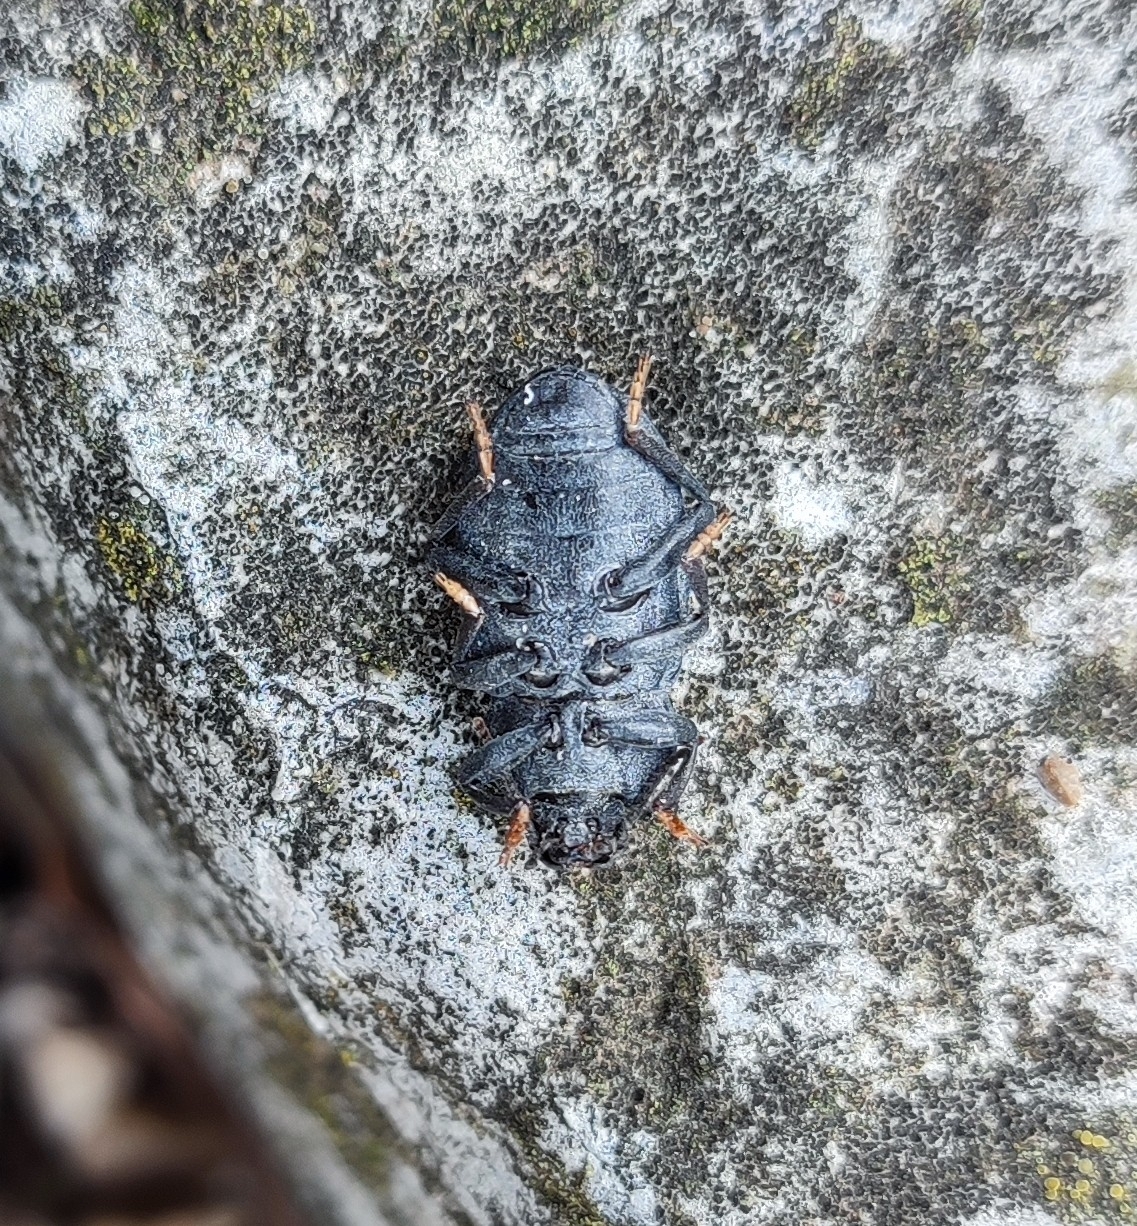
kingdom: Animalia
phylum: Arthropoda
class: Insecta
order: Coleoptera
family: Tenebrionidae
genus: Dendarus
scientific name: Dendarus coarcticollis
